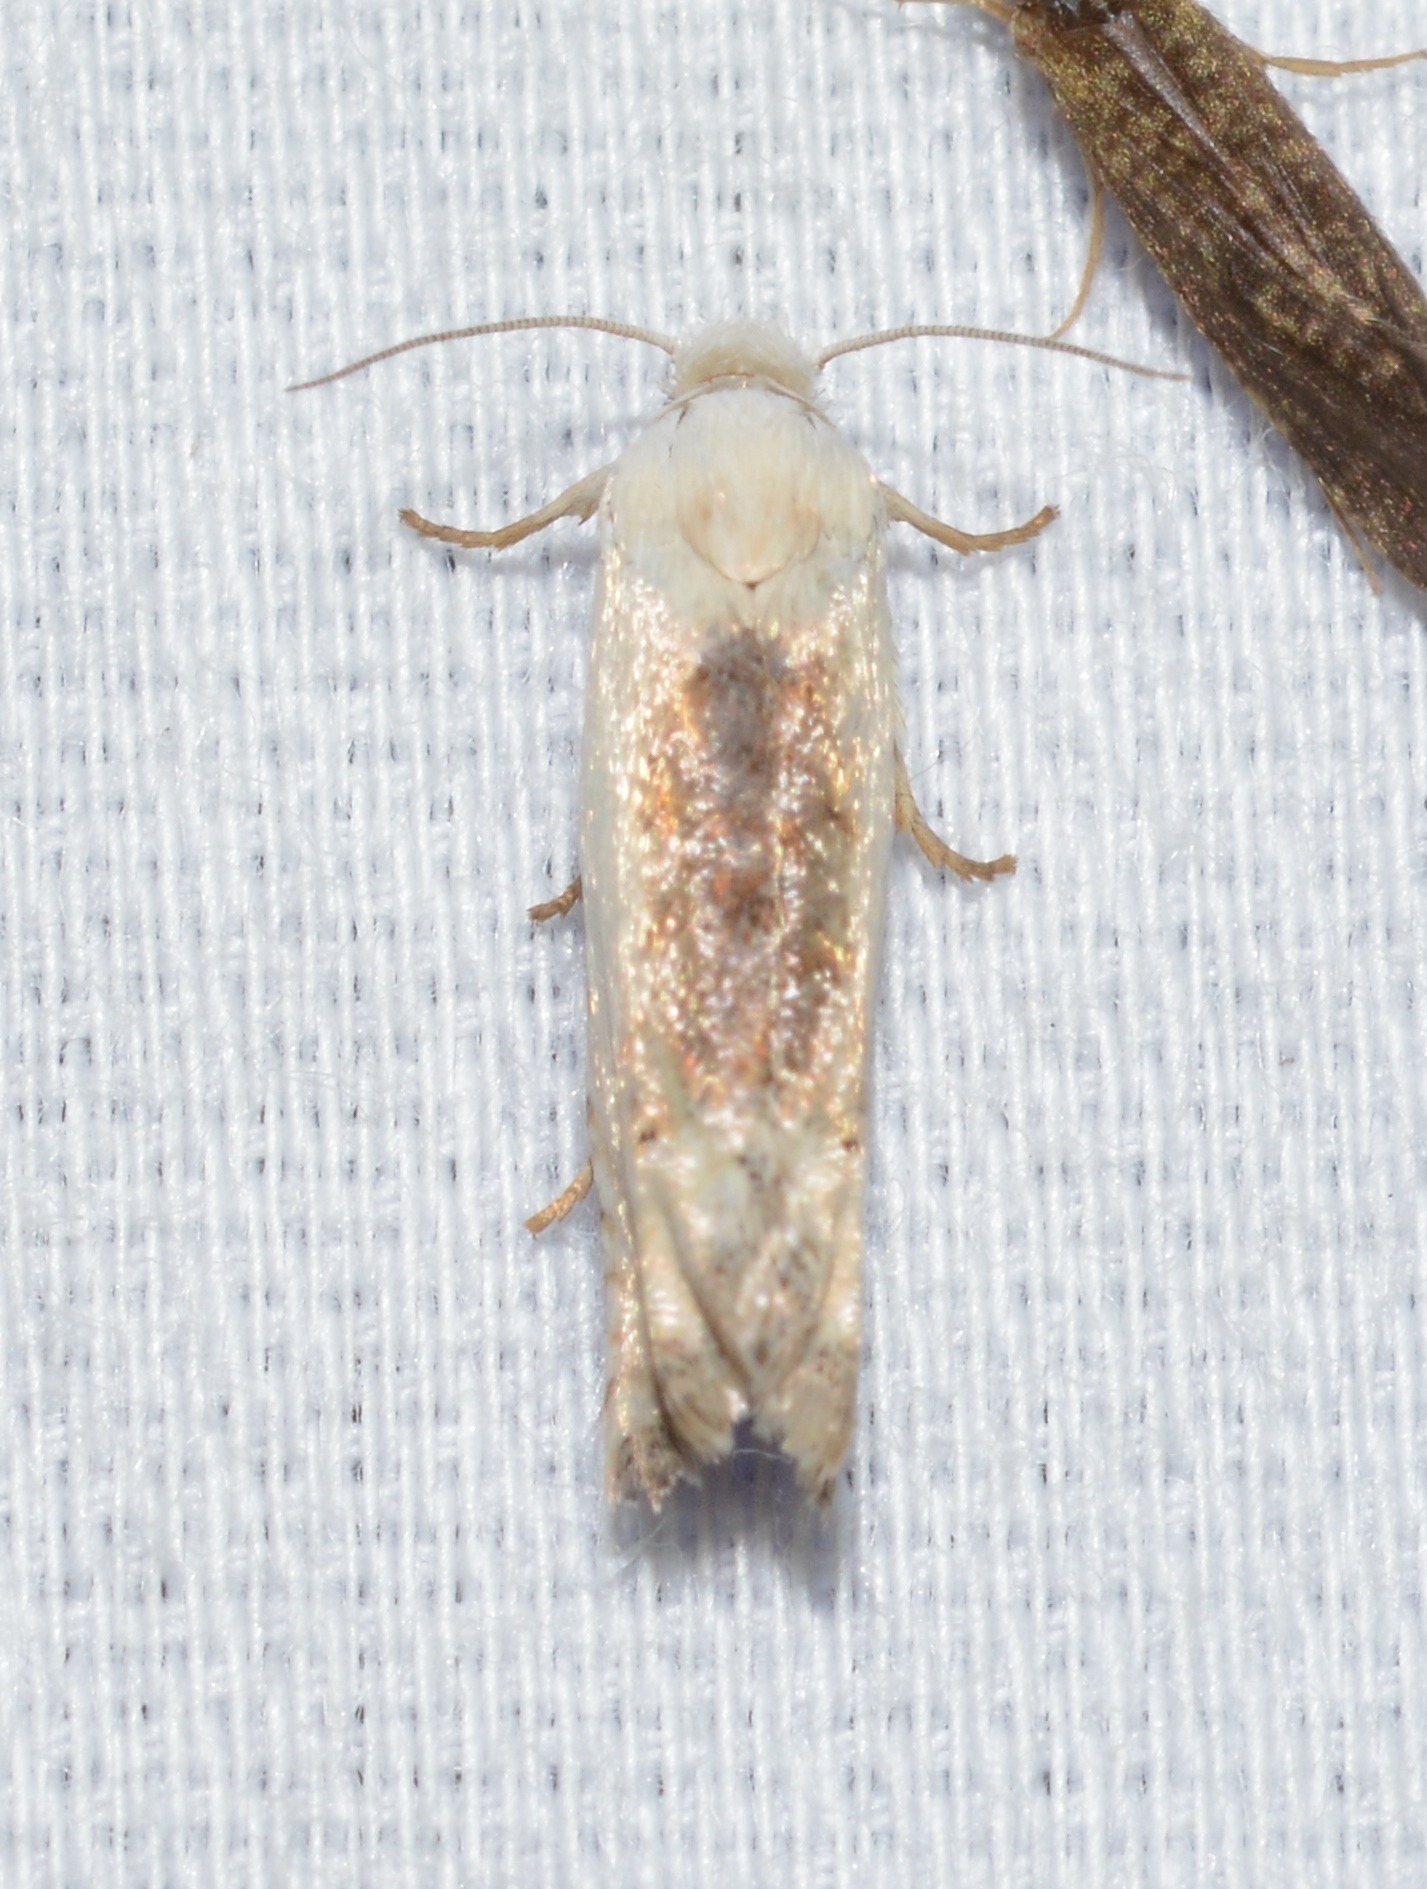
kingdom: Animalia
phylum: Arthropoda
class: Insecta
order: Lepidoptera
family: Tortricidae
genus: Pelochrista
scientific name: Pelochrista heathiana
